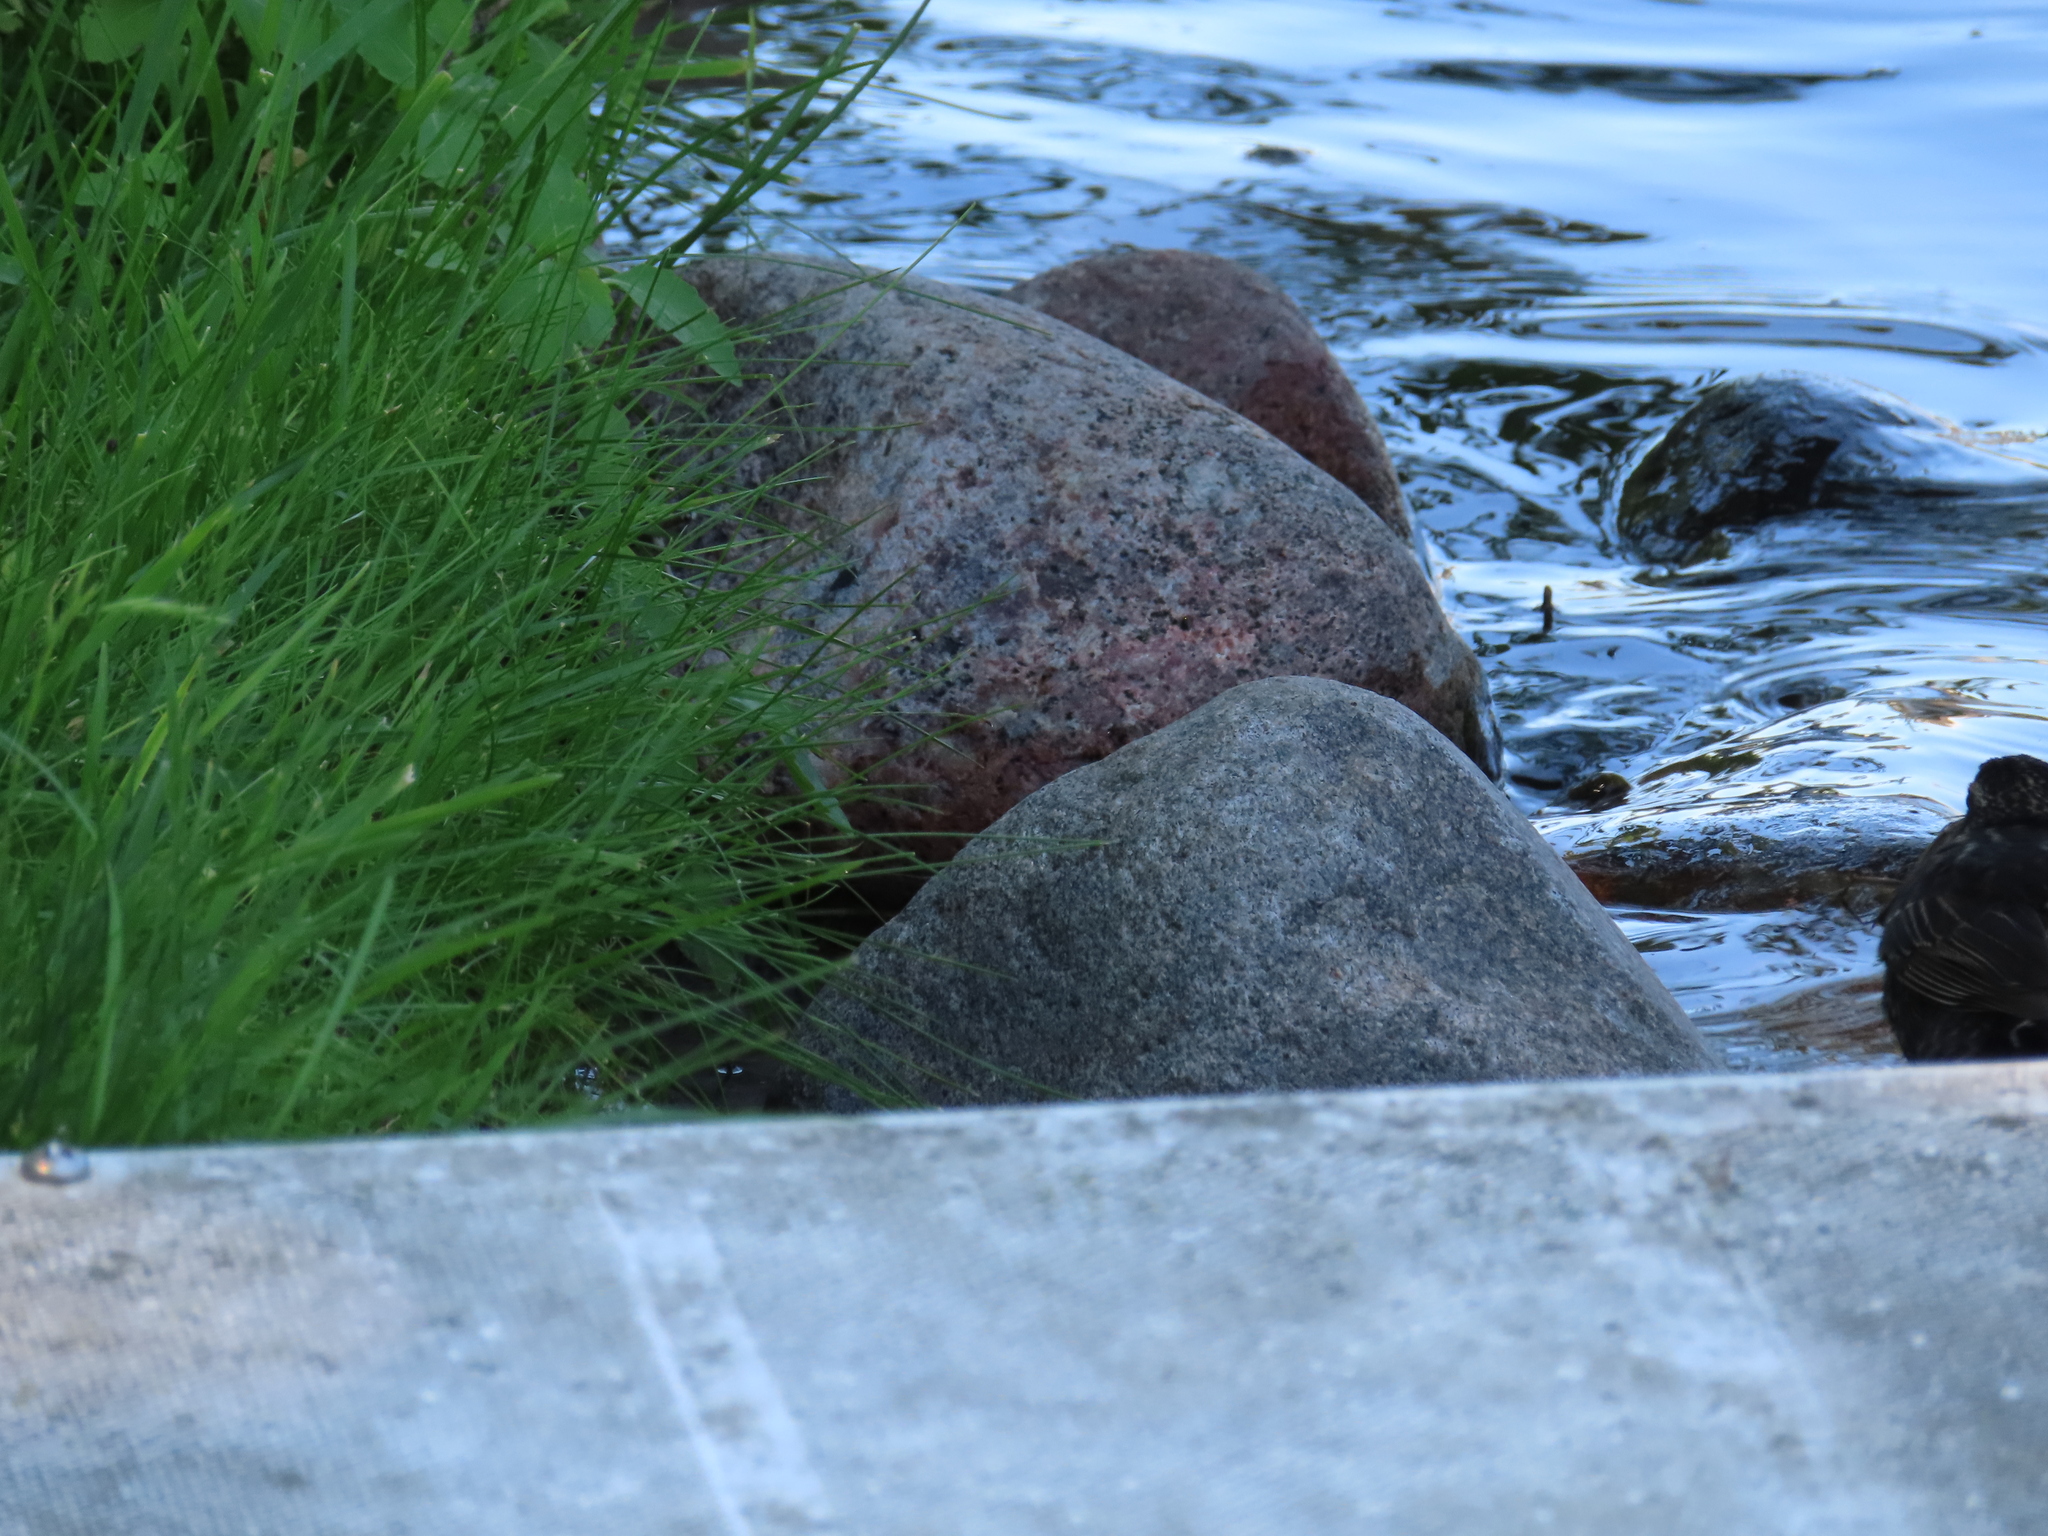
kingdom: Animalia
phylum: Chordata
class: Aves
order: Passeriformes
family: Icteridae
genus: Agelaius
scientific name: Agelaius phoeniceus
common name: Red-winged blackbird
